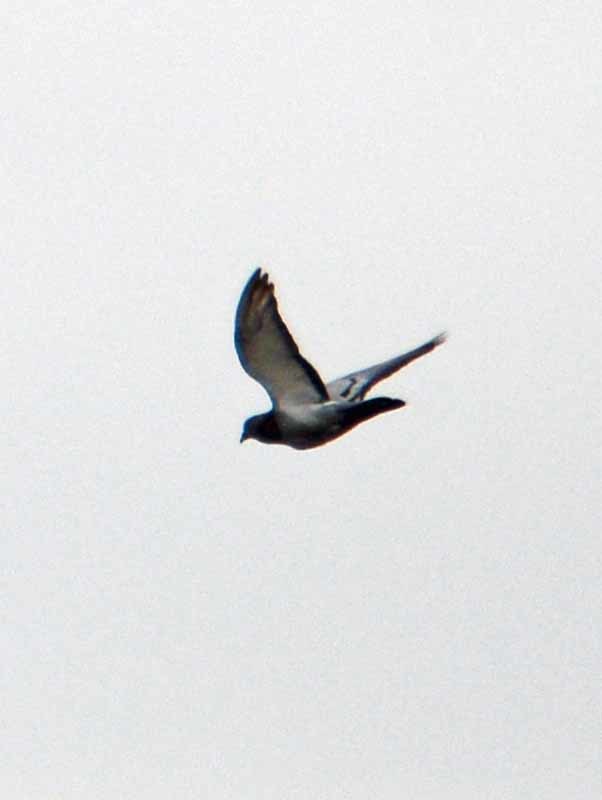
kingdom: Animalia
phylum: Chordata
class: Aves
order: Columbiformes
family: Columbidae
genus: Columba
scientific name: Columba livia
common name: Rock pigeon
